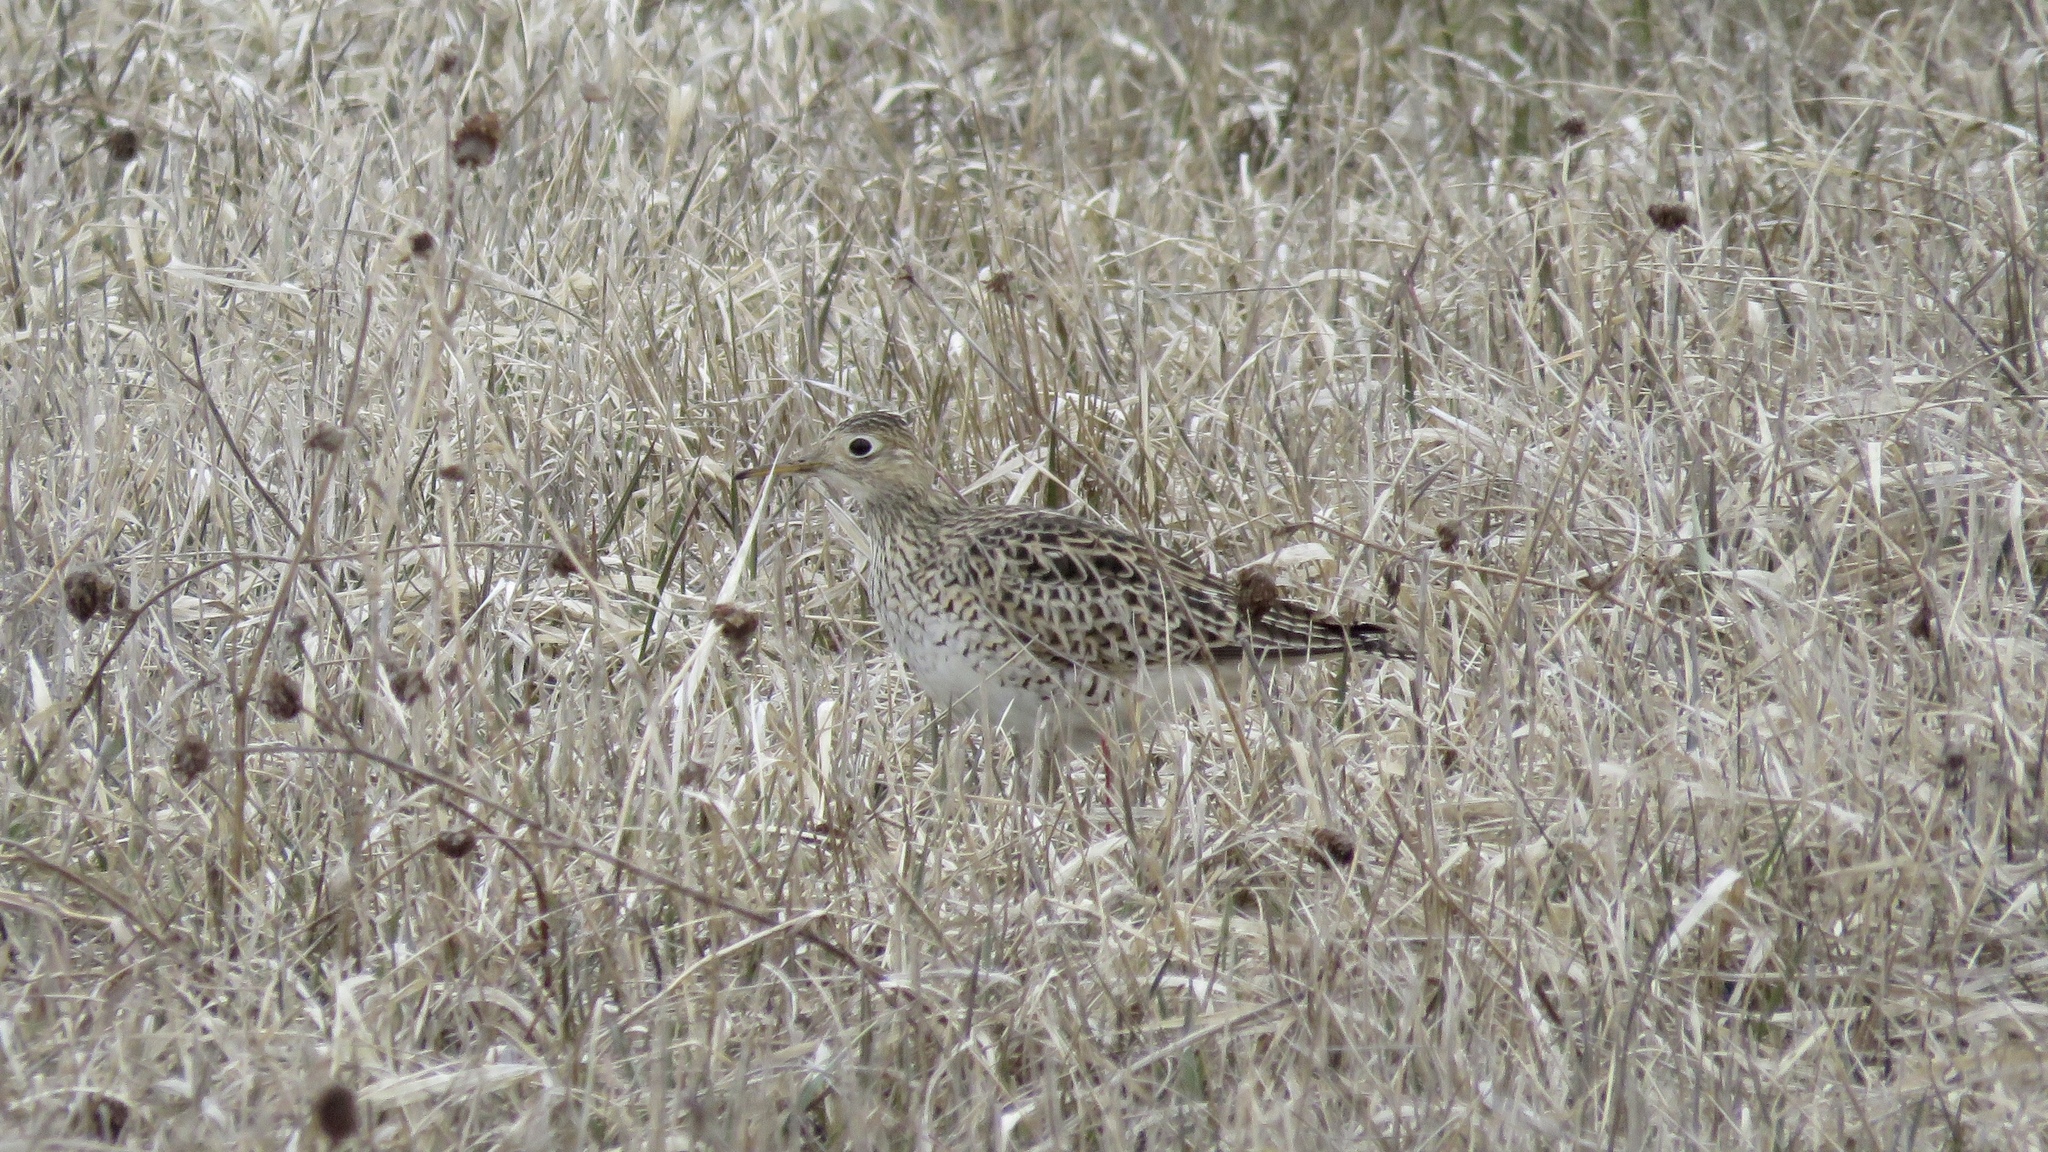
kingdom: Animalia
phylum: Chordata
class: Aves
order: Charadriiformes
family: Scolopacidae
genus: Bartramia
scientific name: Bartramia longicauda
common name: Upland sandpiper
